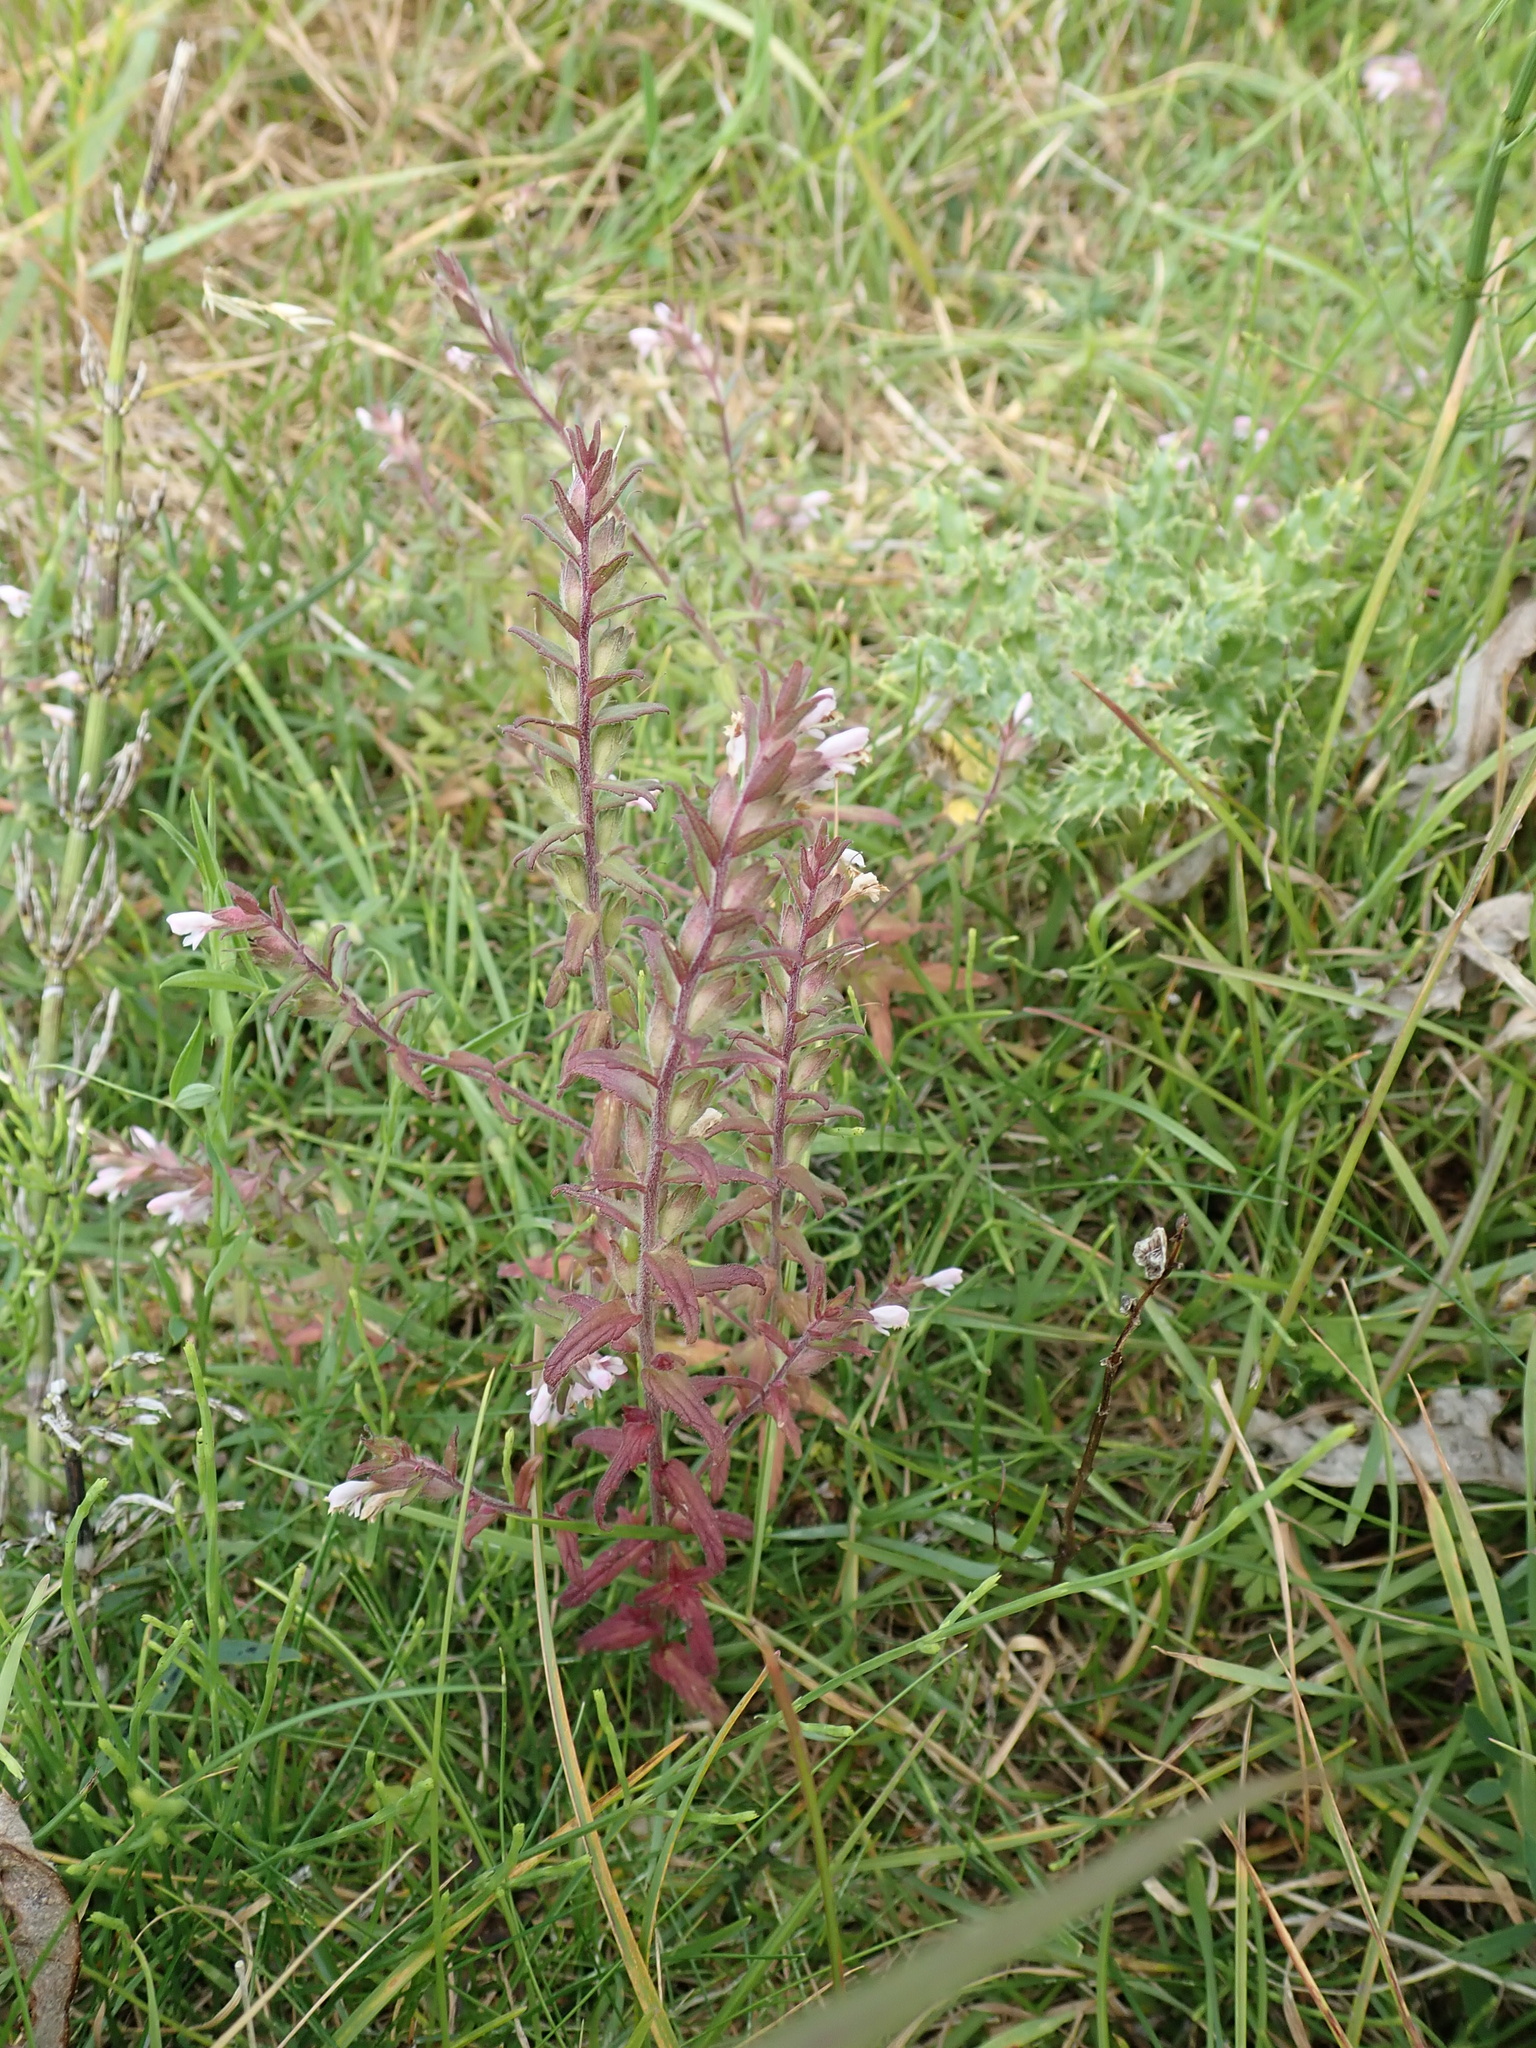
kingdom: Plantae
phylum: Tracheophyta
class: Magnoliopsida
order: Lamiales
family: Orobanchaceae
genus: Odontites
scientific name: Odontites vernus
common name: Red bartsia
